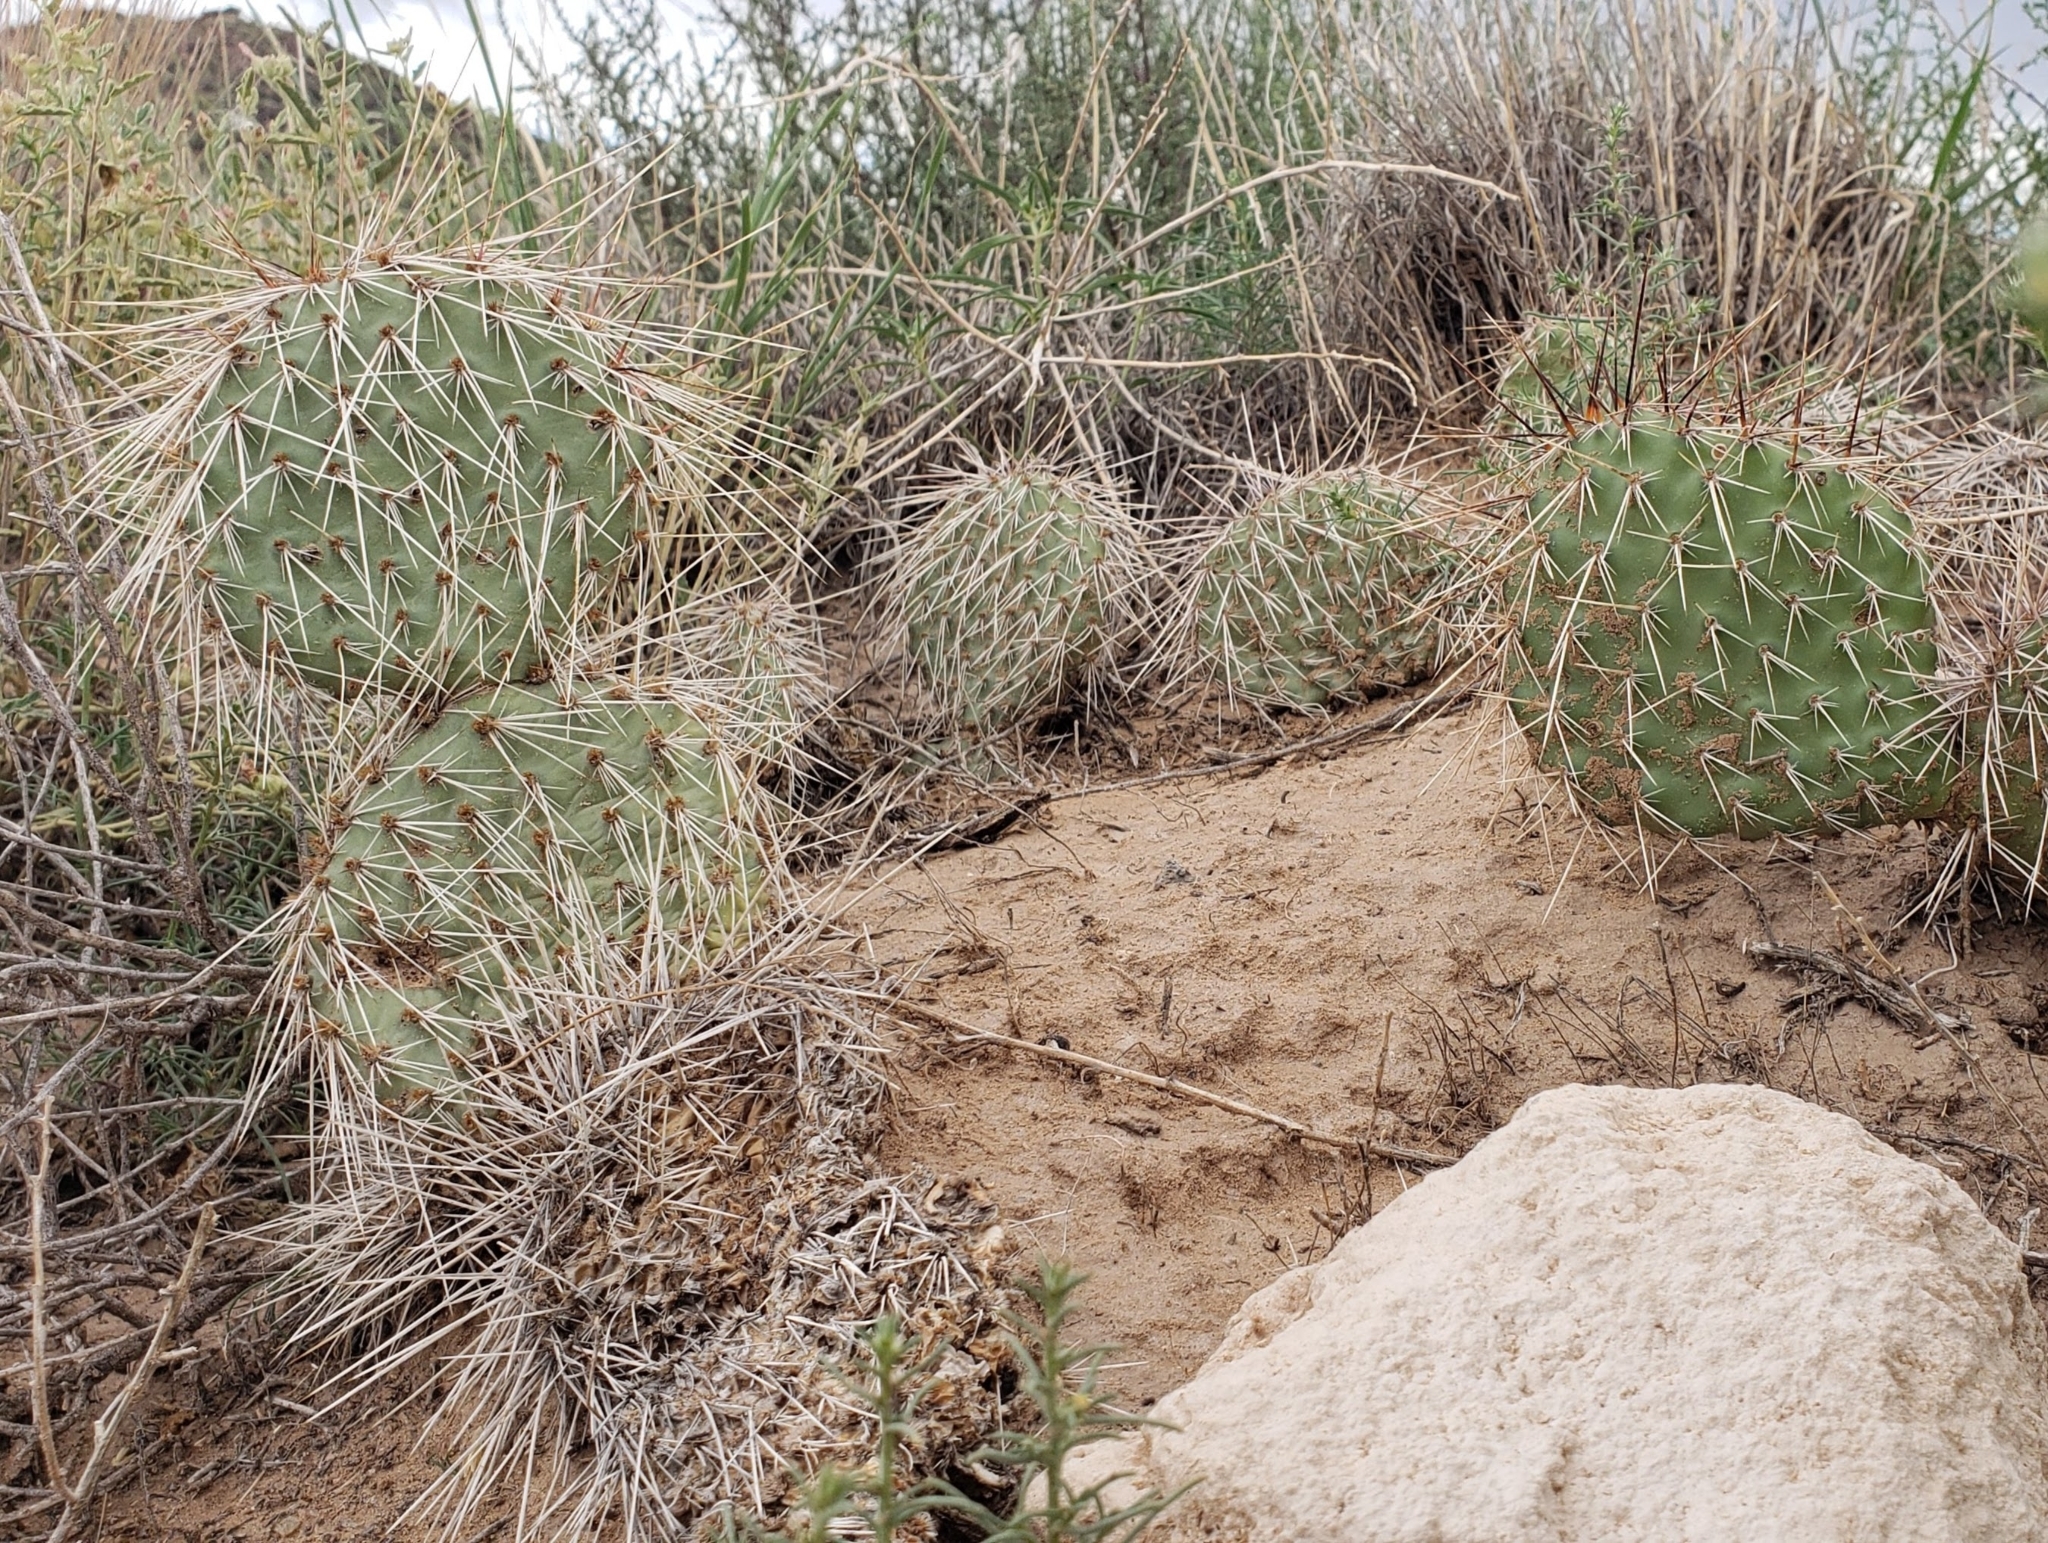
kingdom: Plantae
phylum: Tracheophyta
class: Magnoliopsida
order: Caryophyllales
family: Cactaceae
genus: Opuntia
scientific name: Opuntia polyacantha
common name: Plains prickly-pear
